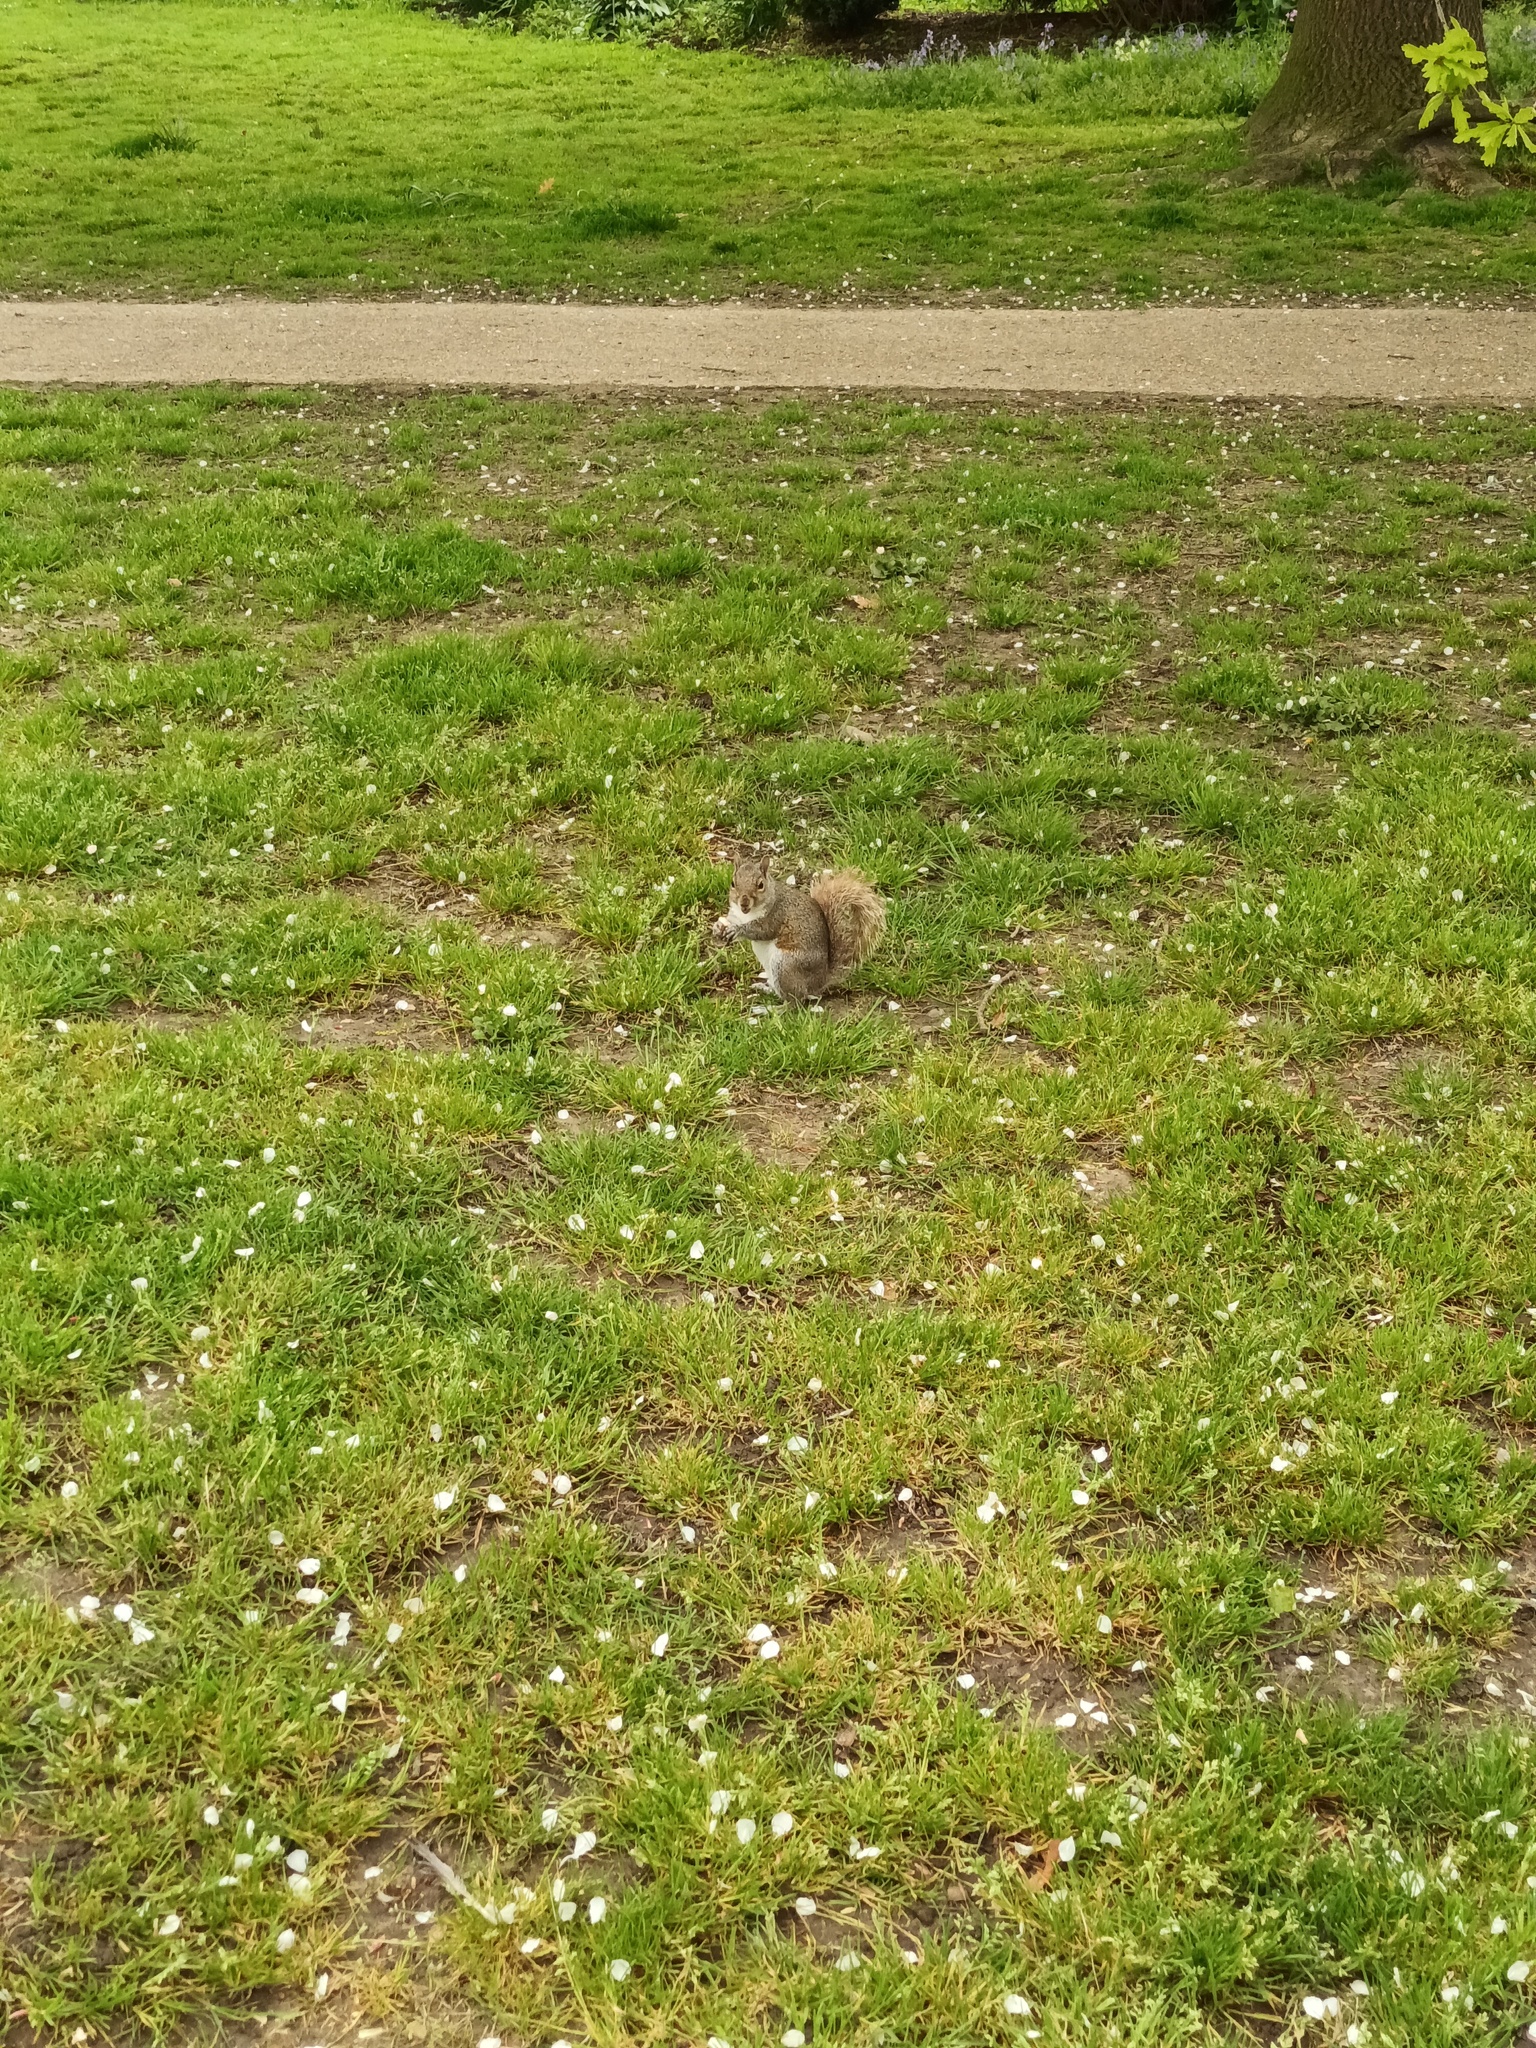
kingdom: Animalia
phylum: Chordata
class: Mammalia
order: Rodentia
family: Sciuridae
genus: Sciurus
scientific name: Sciurus carolinensis
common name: Eastern gray squirrel
